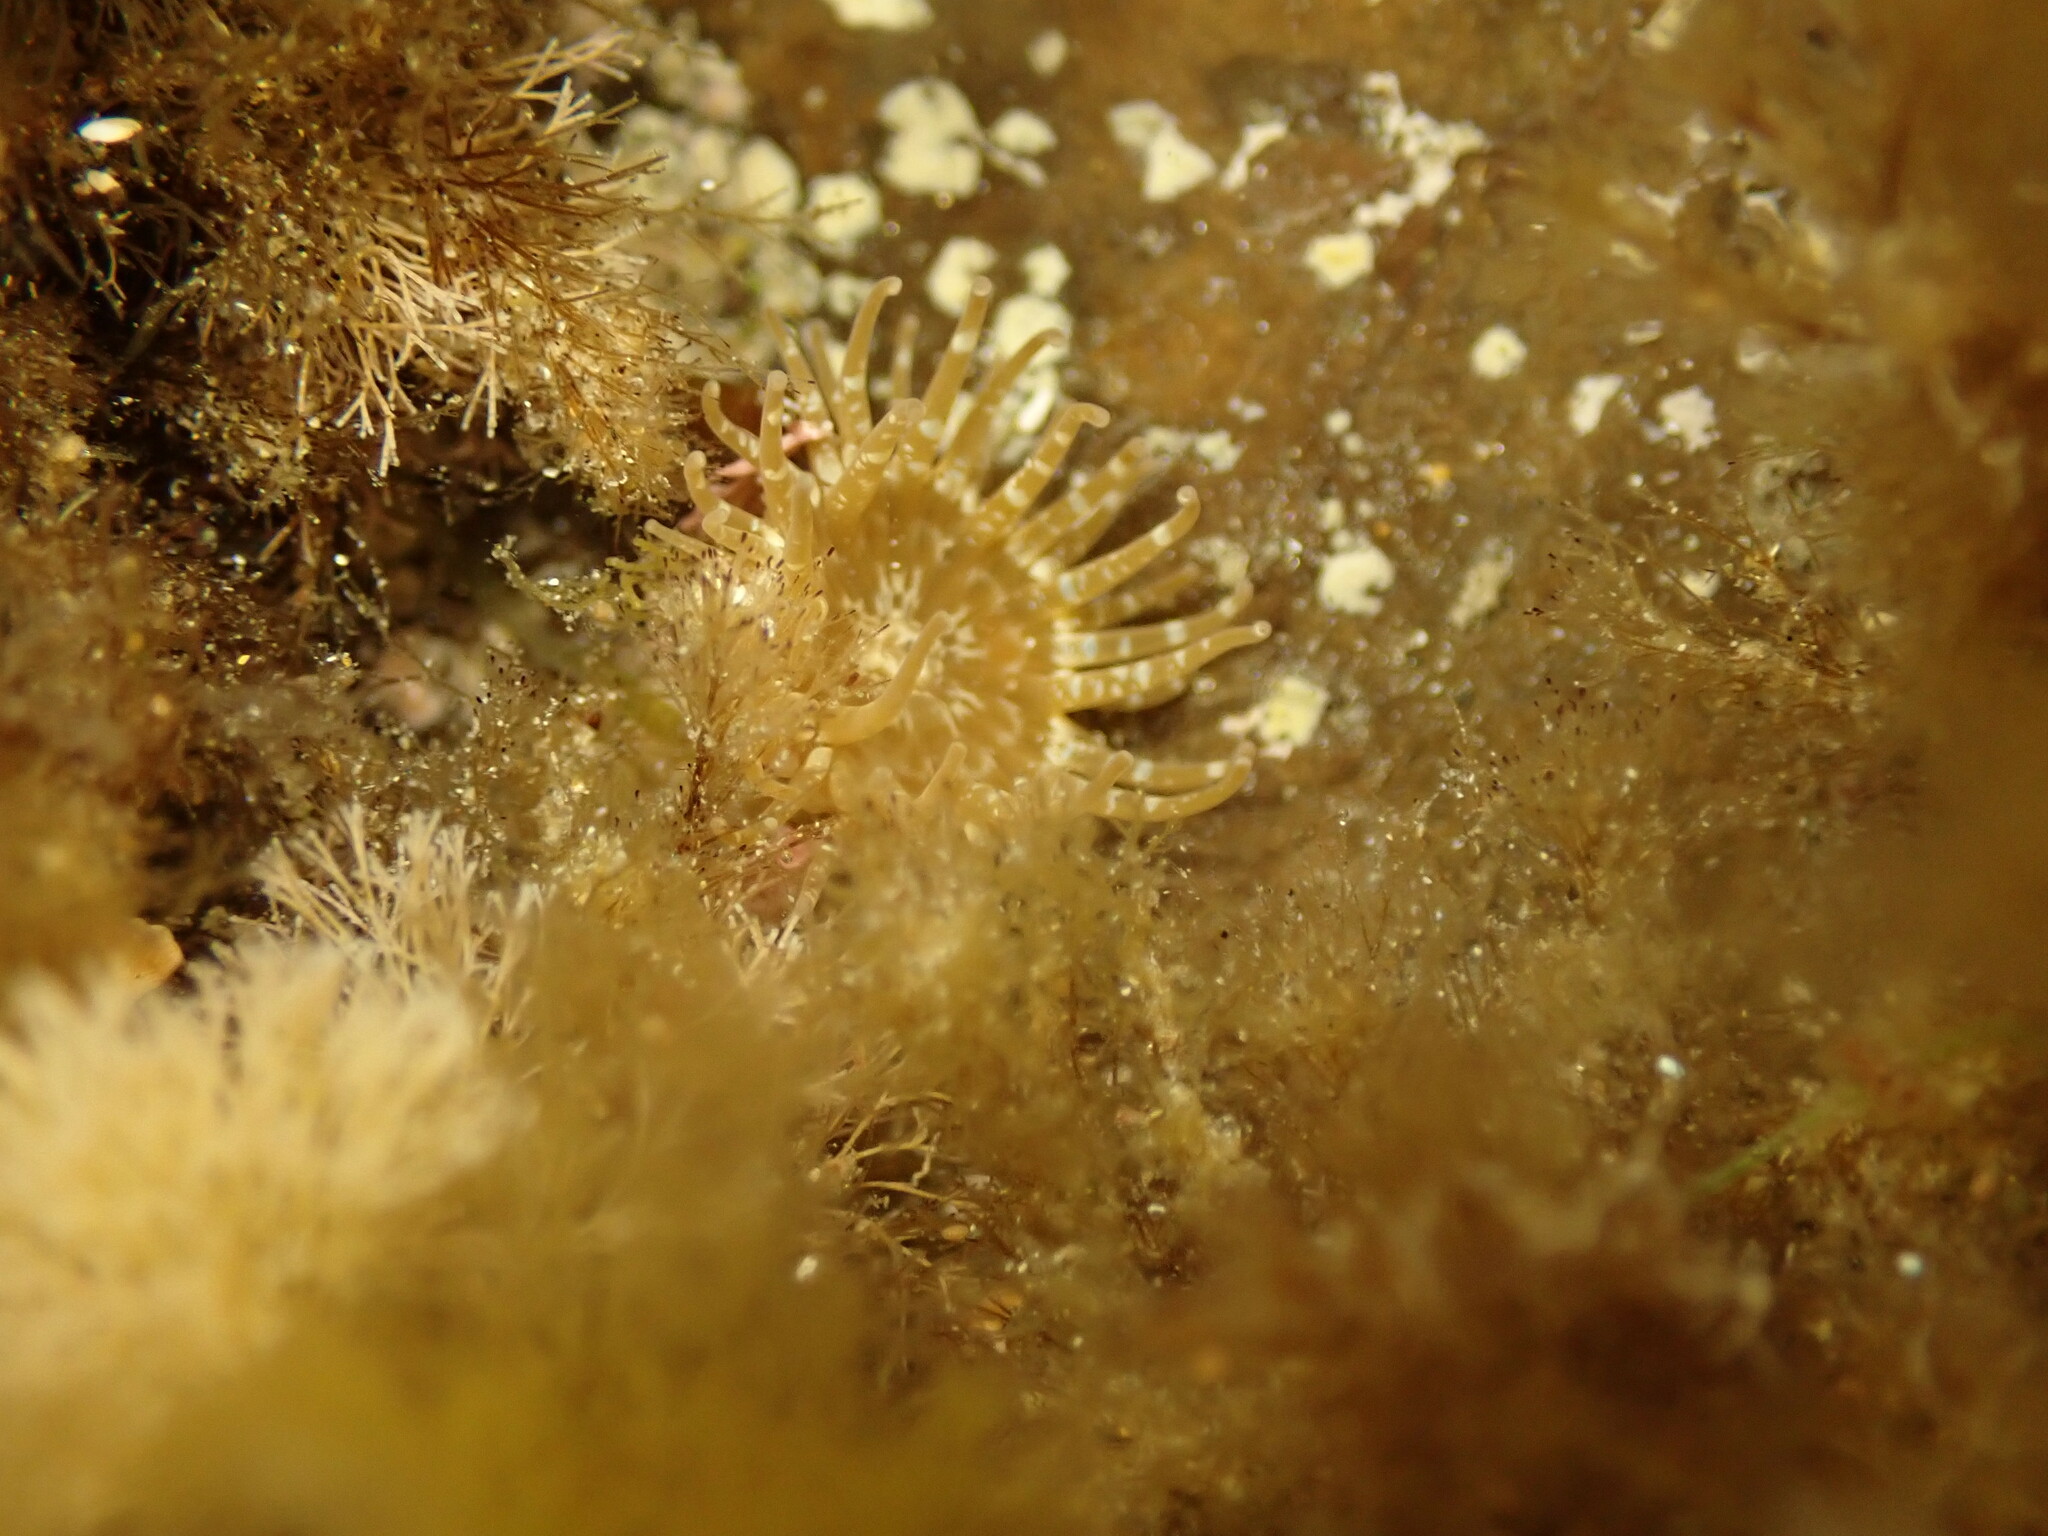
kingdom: Animalia
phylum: Cnidaria
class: Anthozoa
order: Actiniaria
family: Actiniidae
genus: Anthopleura
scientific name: Anthopleura hermaphroditica
